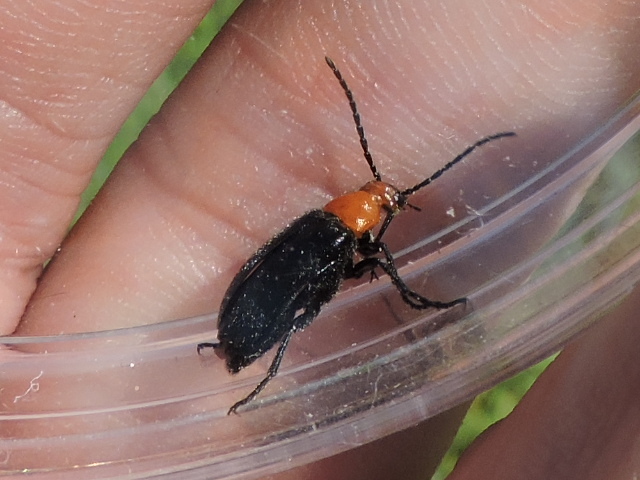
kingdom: Animalia
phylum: Arthropoda
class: Insecta
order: Coleoptera
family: Meloidae
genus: Nemognatha
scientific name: Nemognatha bifoveata
